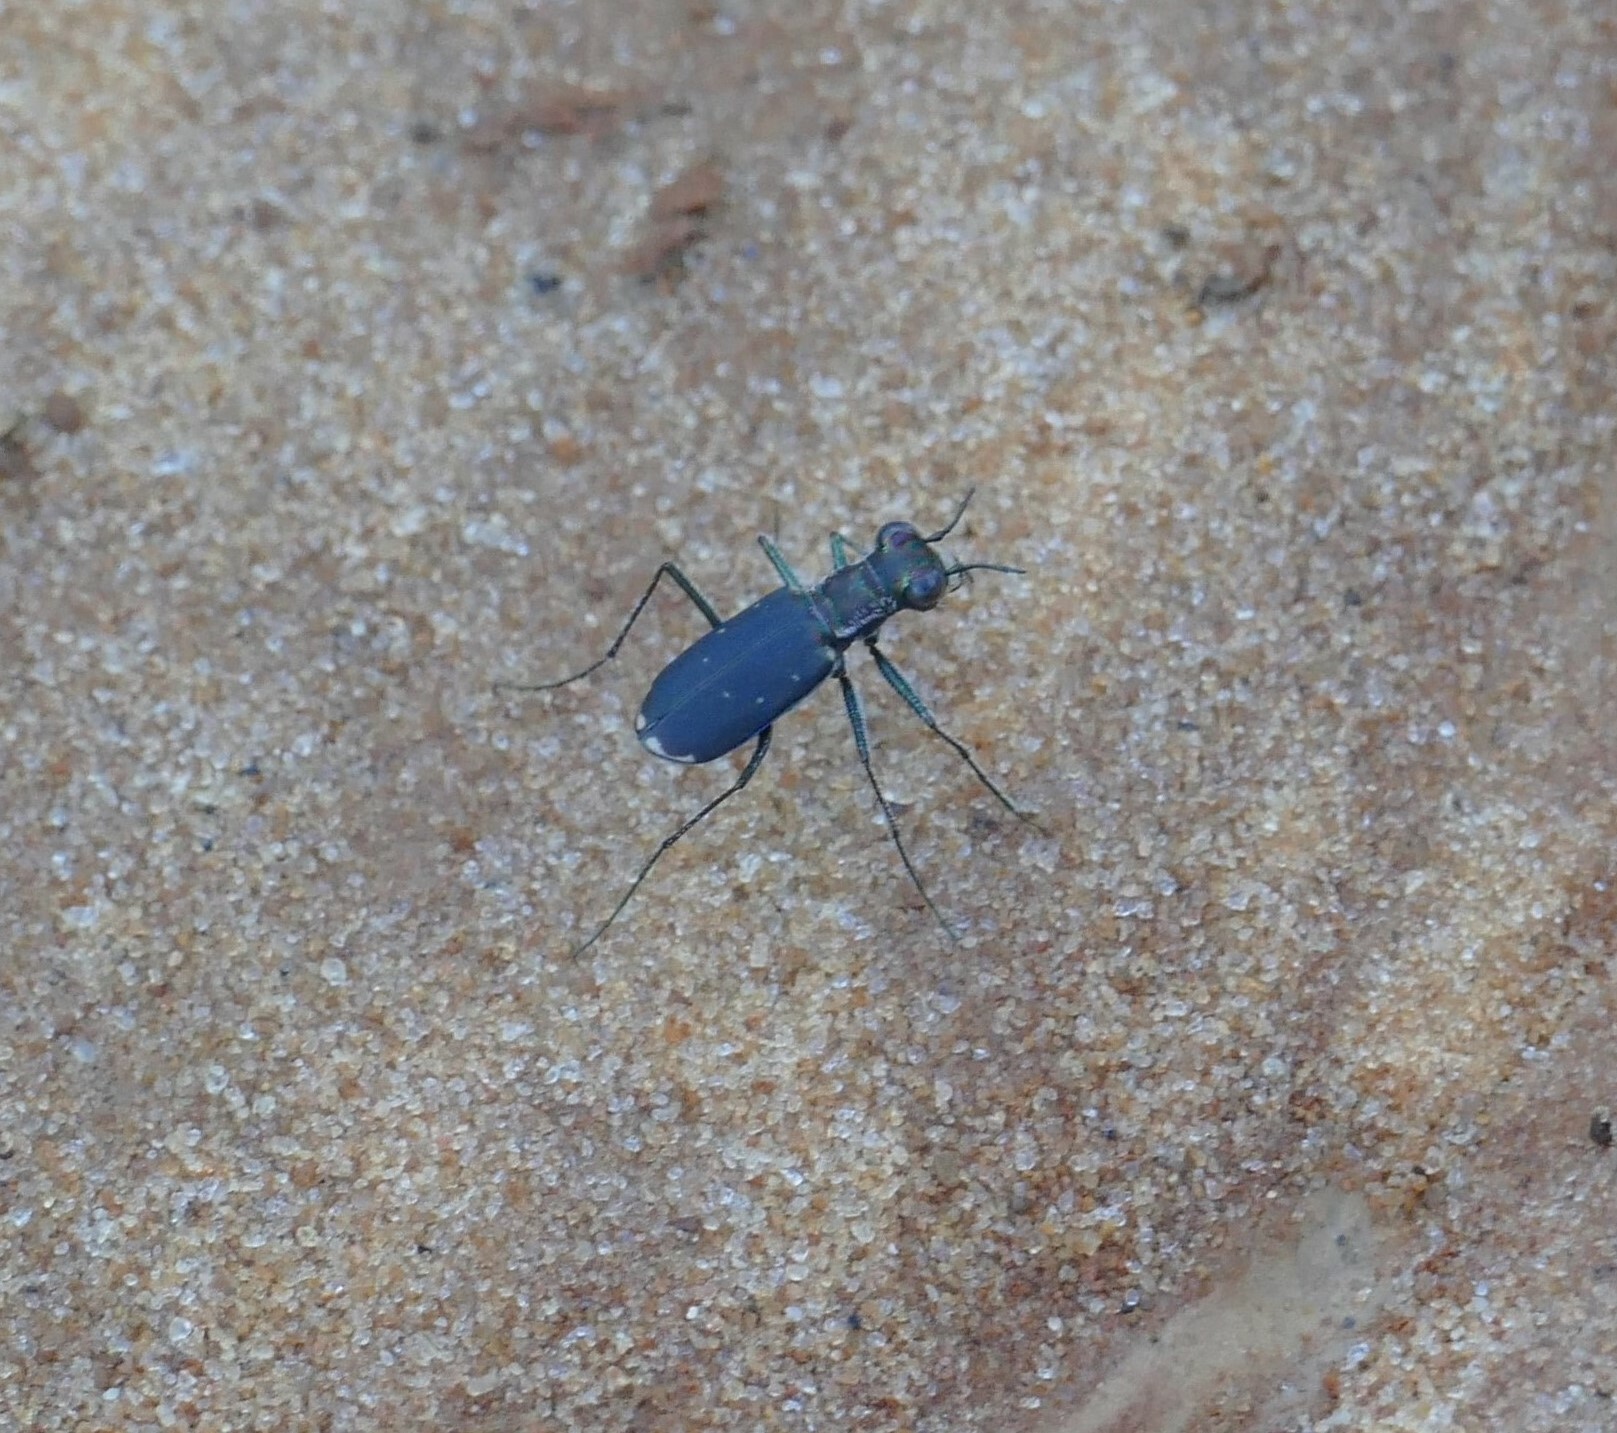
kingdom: Animalia
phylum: Arthropoda
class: Insecta
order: Coleoptera
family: Carabidae
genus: Cicindela
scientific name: Cicindela rufiventris
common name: Eastern red-bellied tiger beetle
